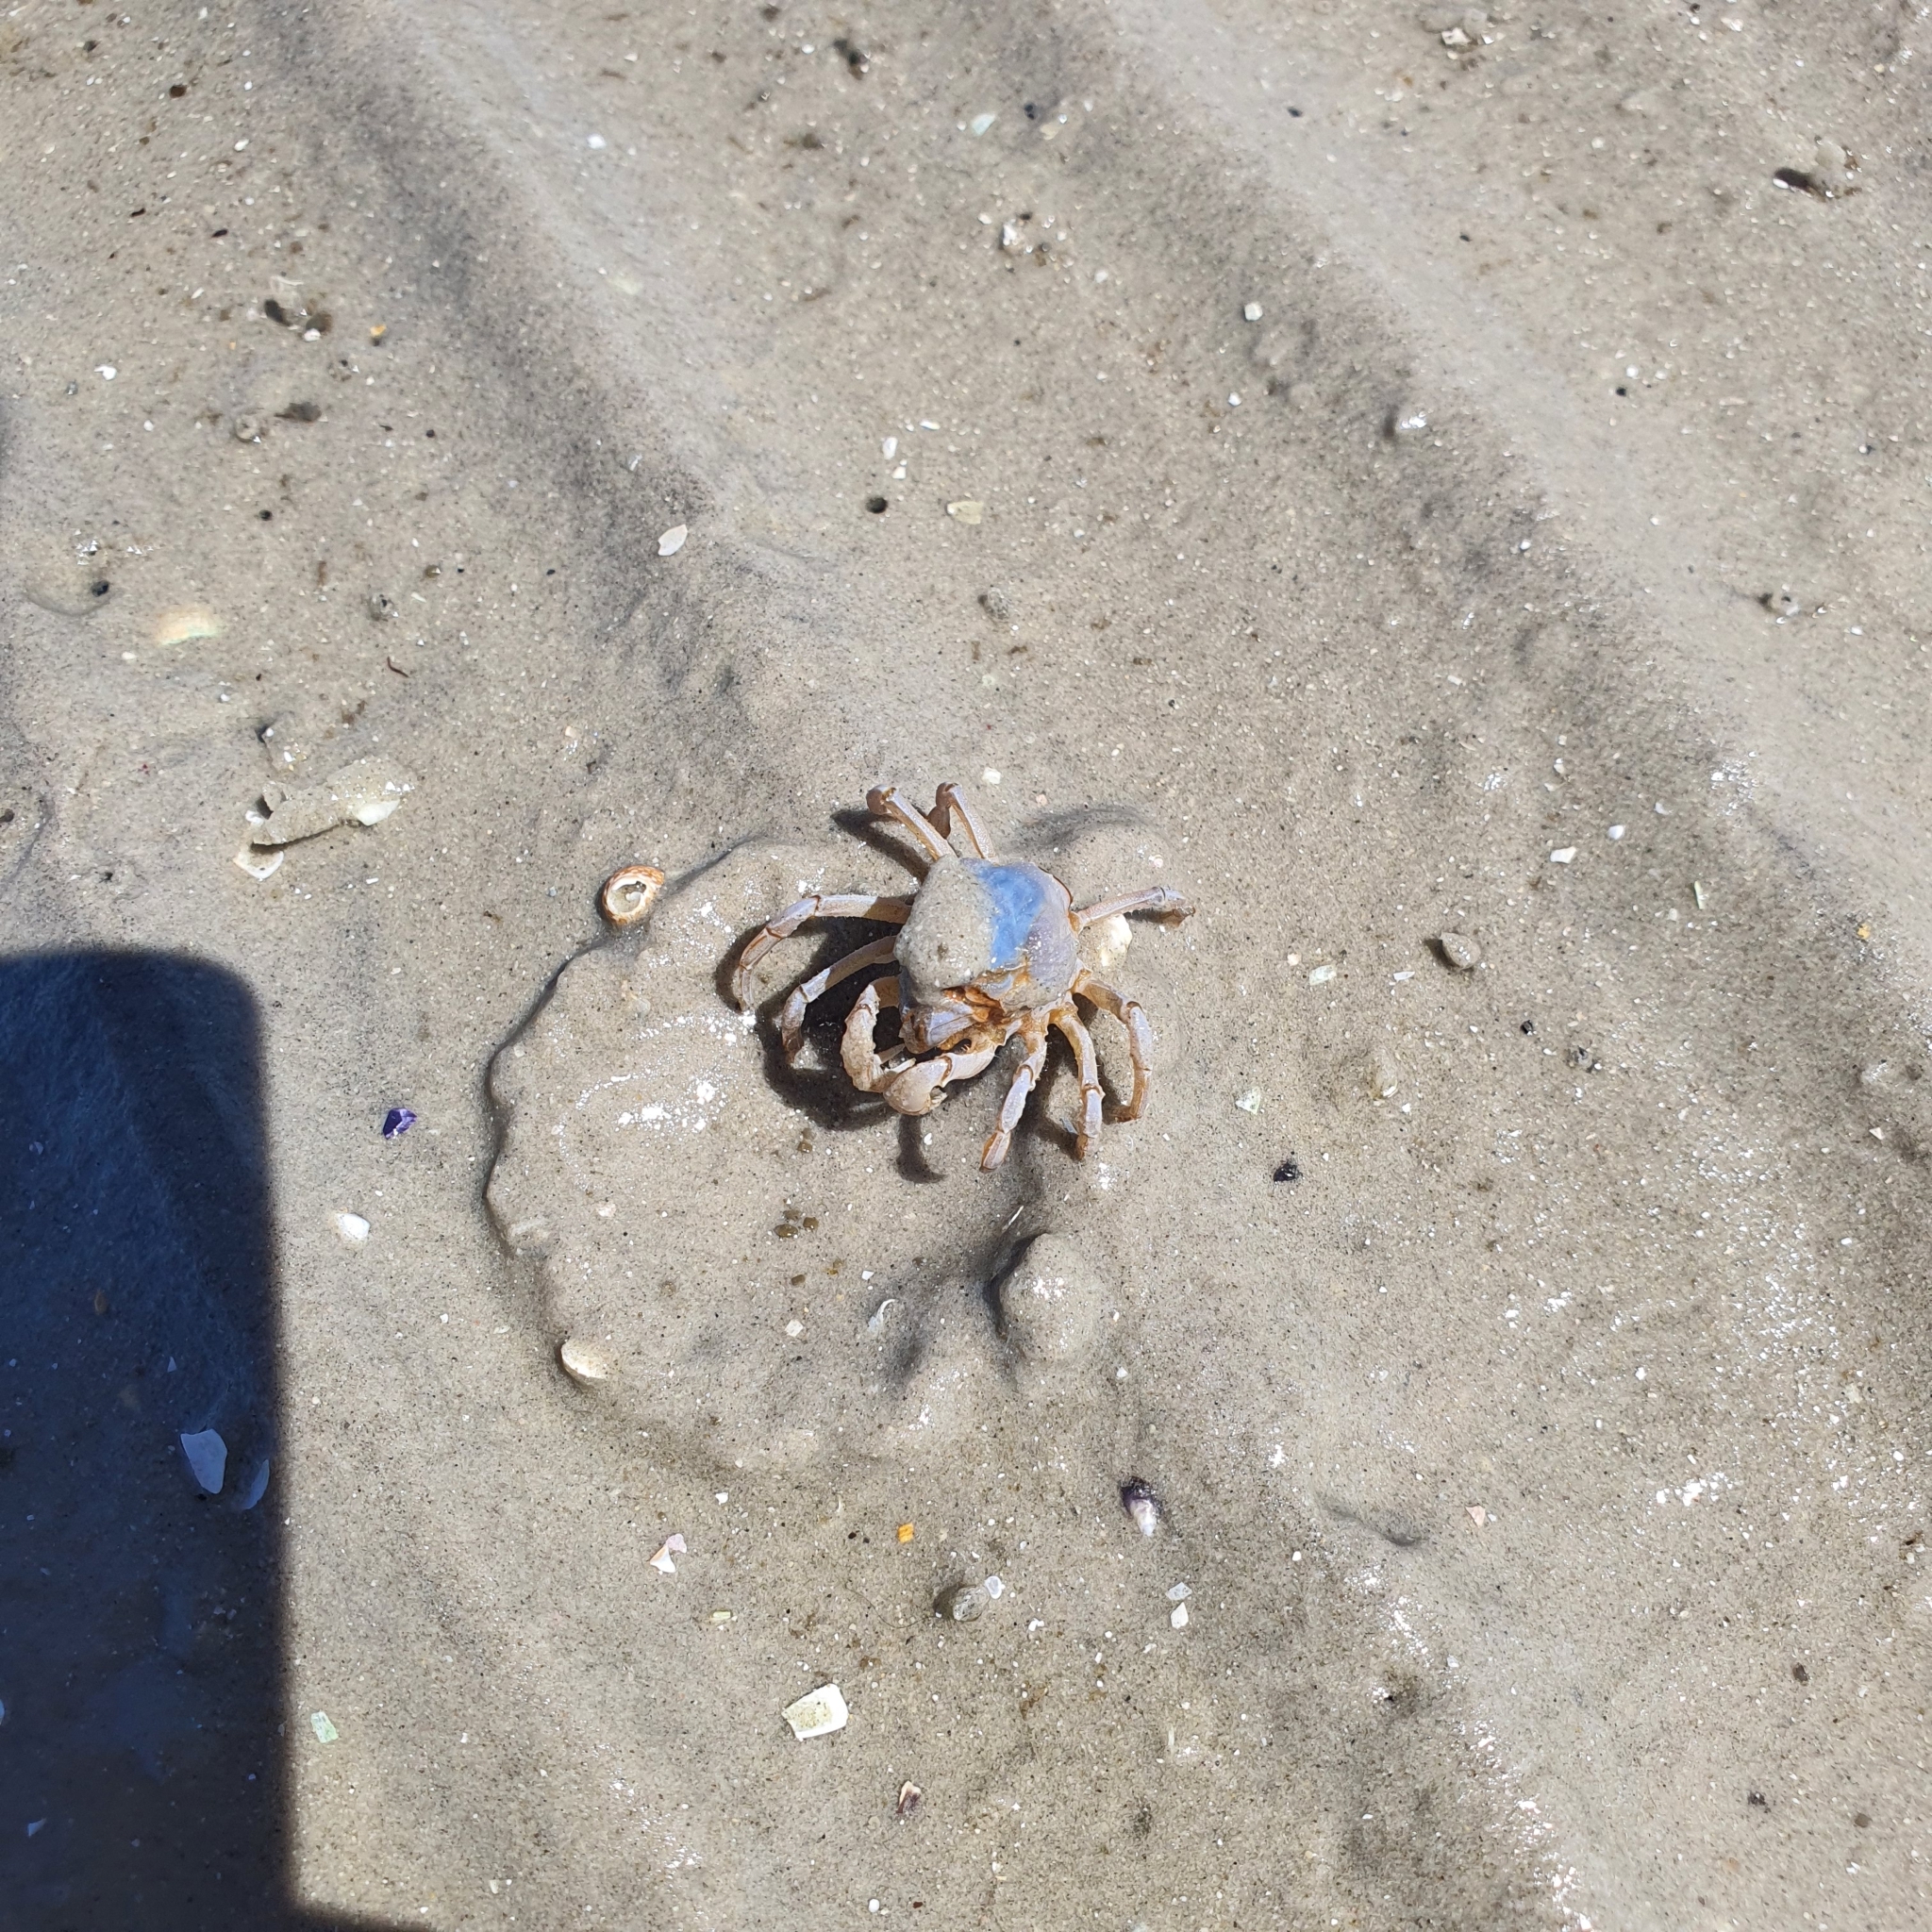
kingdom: Animalia
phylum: Arthropoda
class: Malacostraca
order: Decapoda
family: Mictyridae
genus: Mictyris
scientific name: Mictyris longicarpus
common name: Light-blue soldier crab
